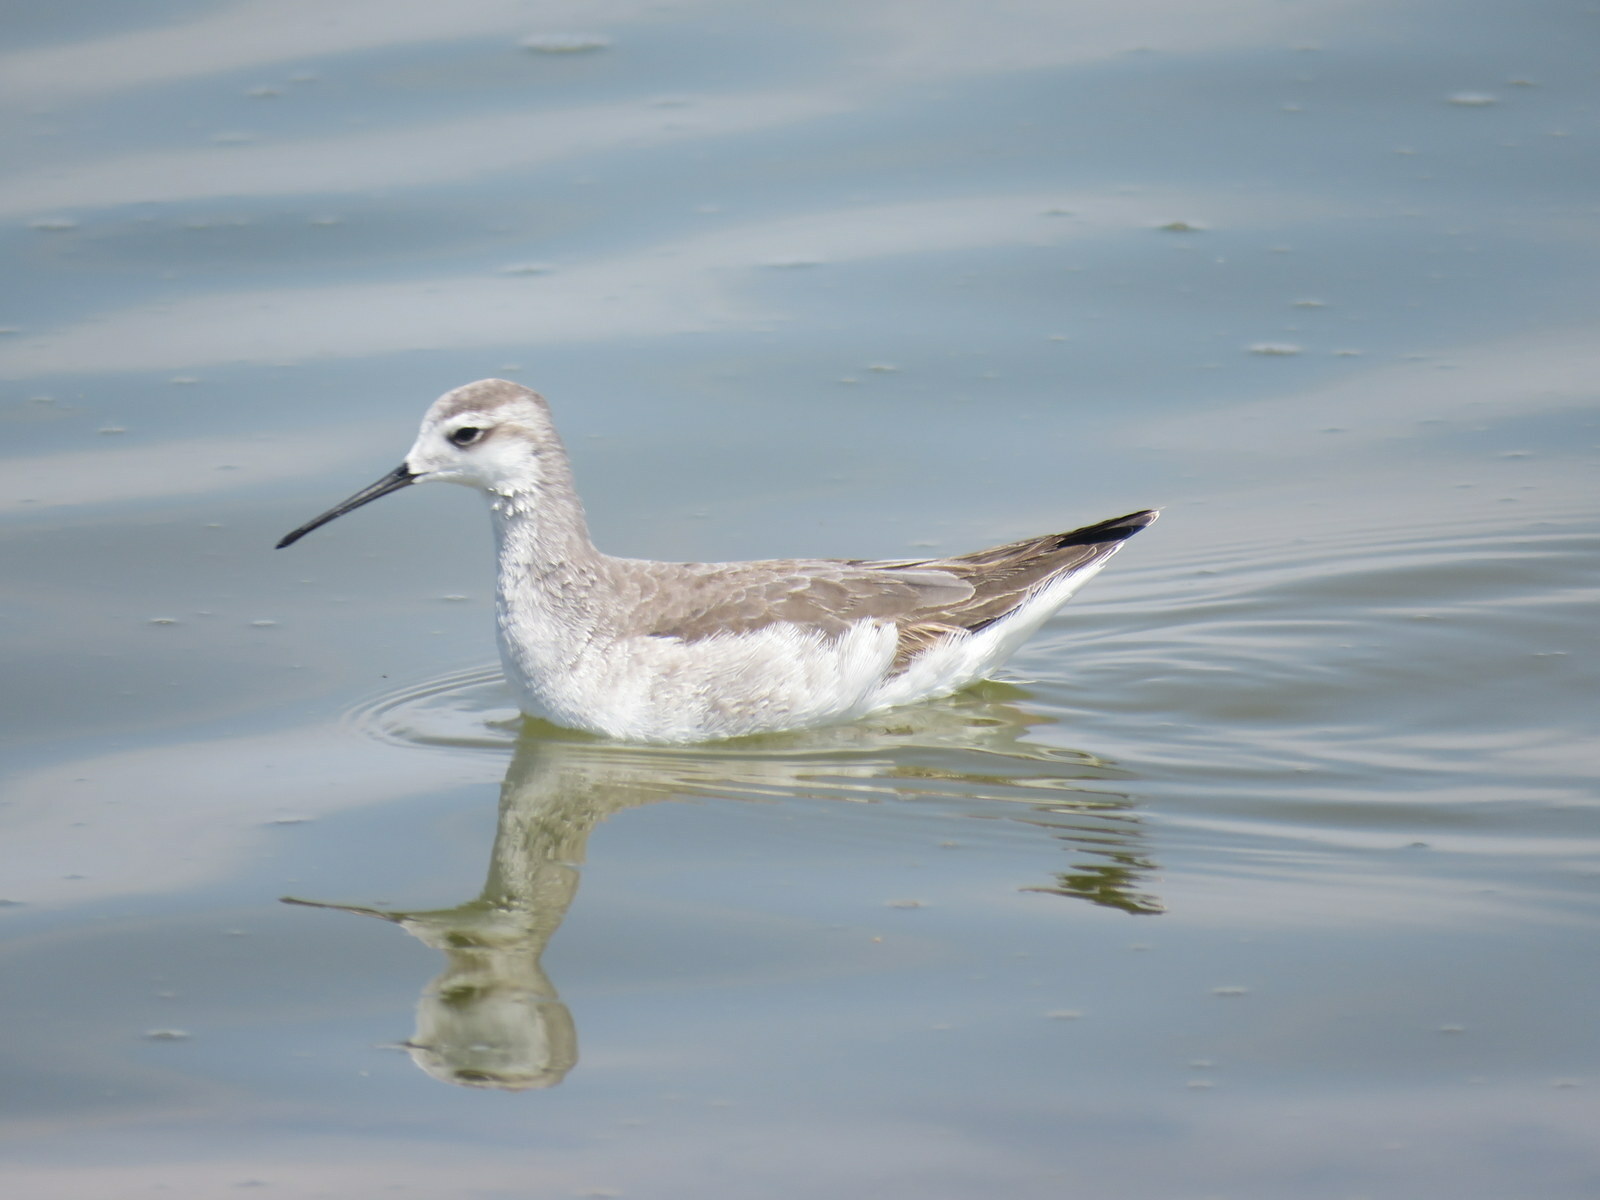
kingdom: Animalia
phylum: Chordata
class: Aves
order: Charadriiformes
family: Scolopacidae
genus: Phalaropus
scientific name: Phalaropus tricolor
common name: Wilson's phalarope
